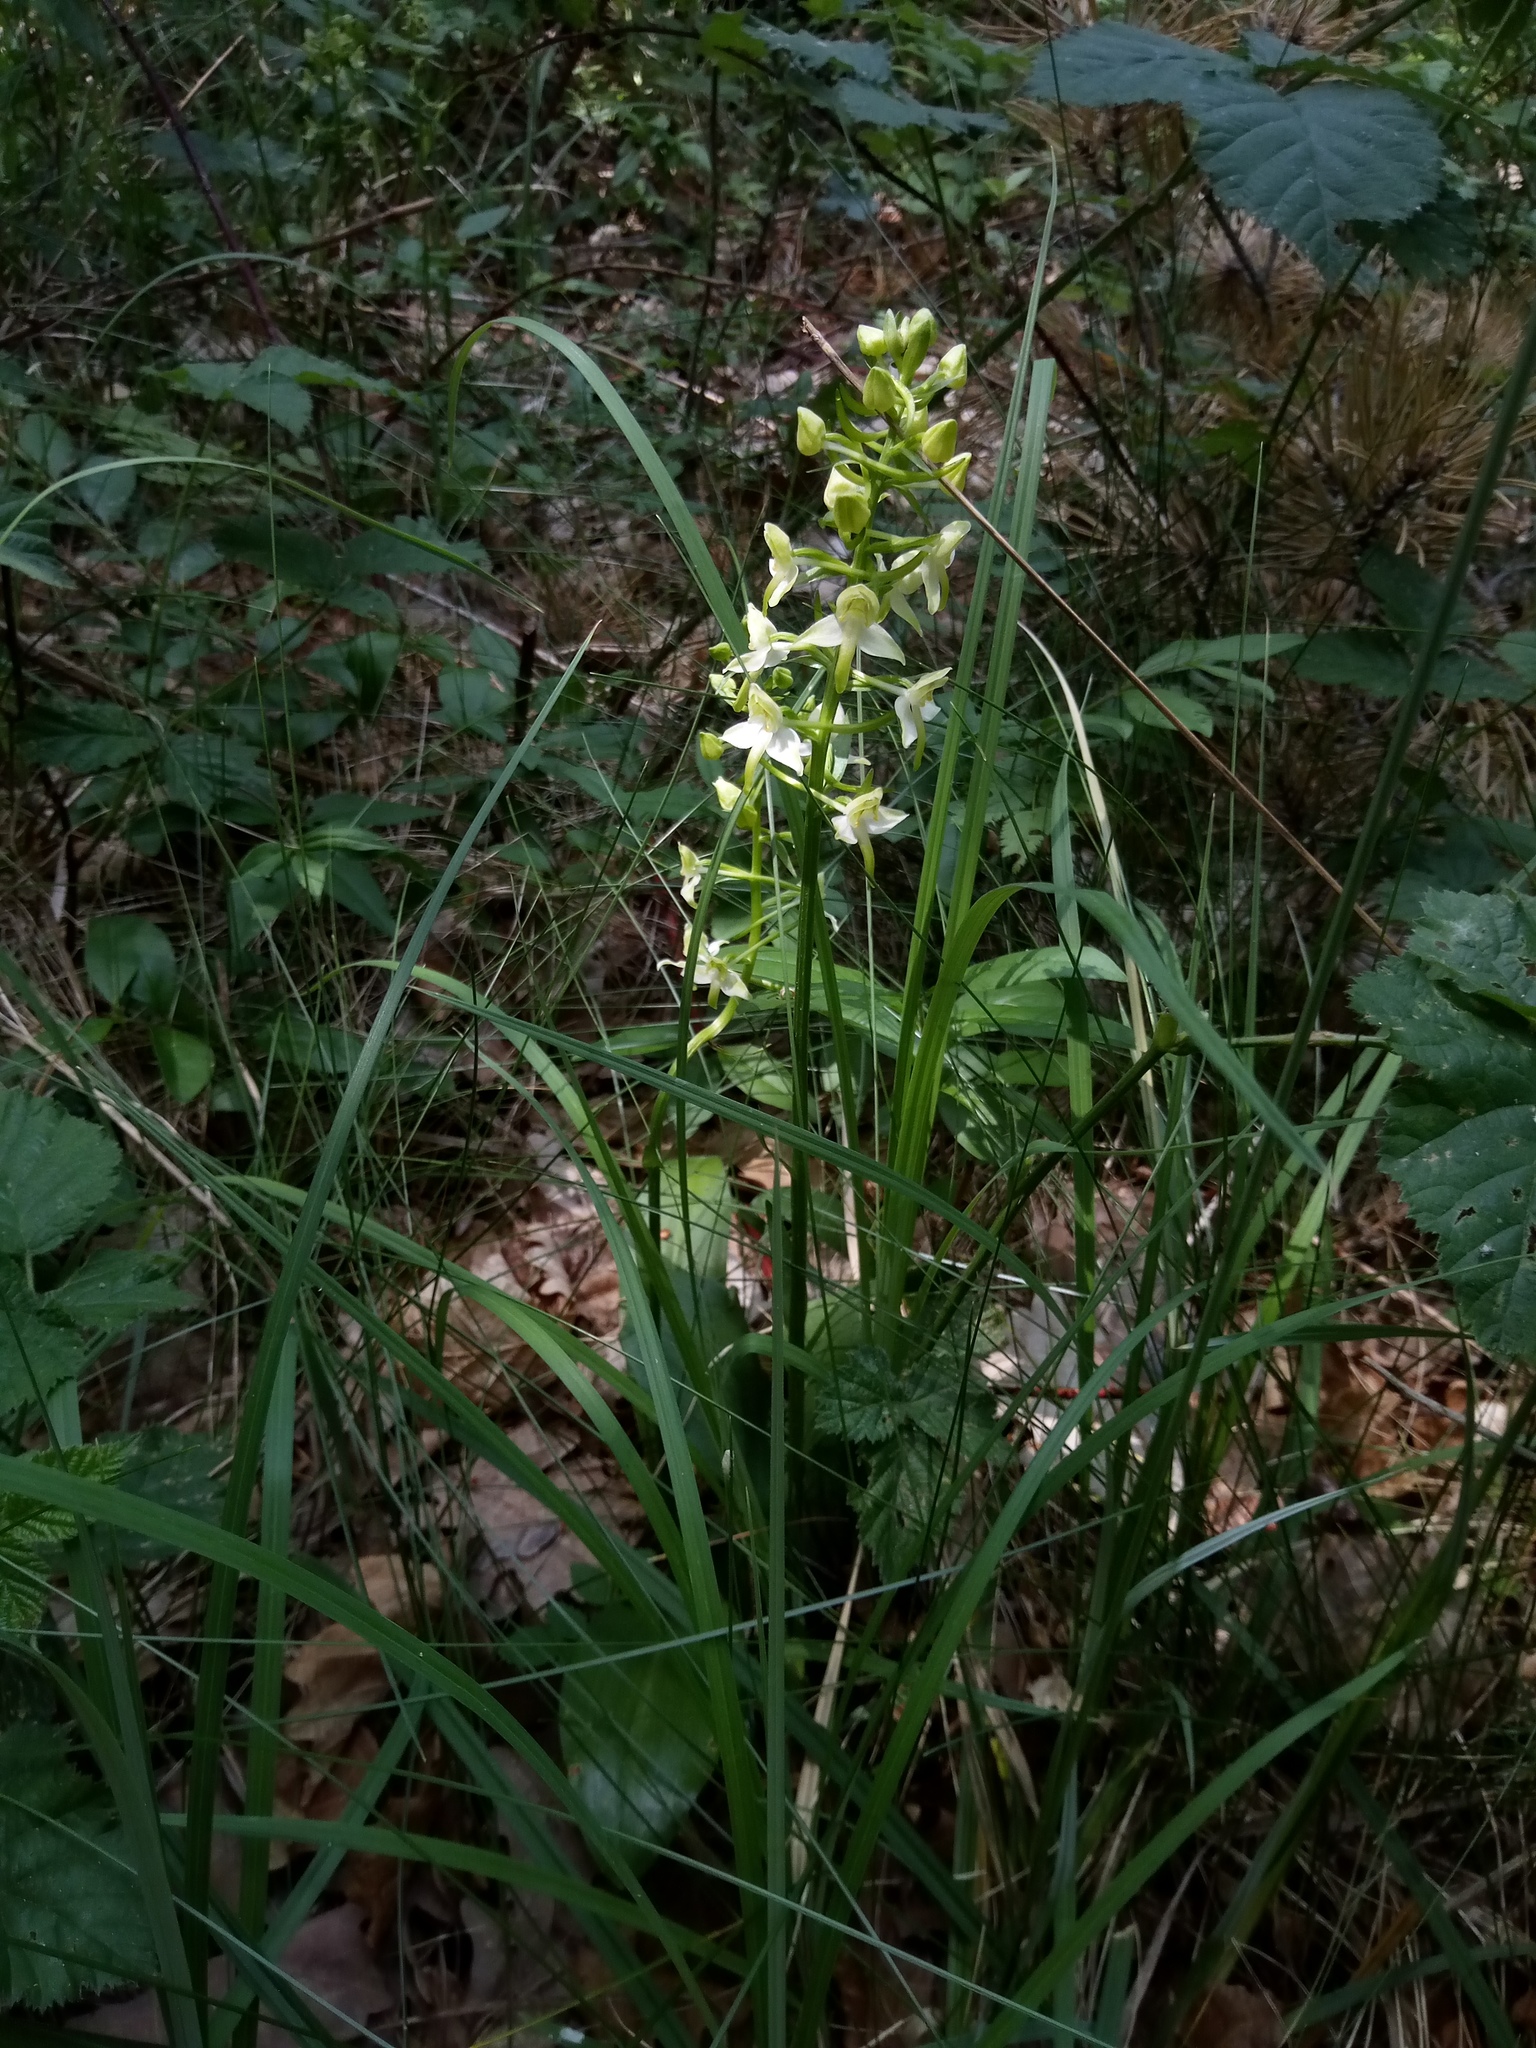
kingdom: Plantae
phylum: Tracheophyta
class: Liliopsida
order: Asparagales
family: Orchidaceae
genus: Platanthera
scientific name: Platanthera chlorantha
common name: Greater butterfly-orchid
